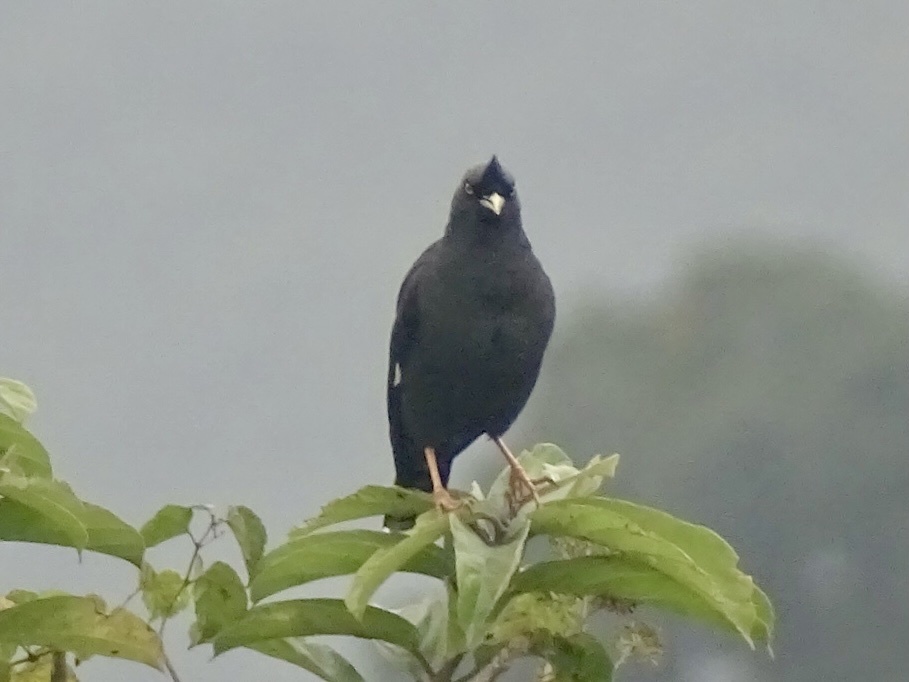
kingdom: Animalia
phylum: Chordata
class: Aves
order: Passeriformes
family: Sturnidae
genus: Acridotheres
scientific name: Acridotheres cristatellus
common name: Crested myna
